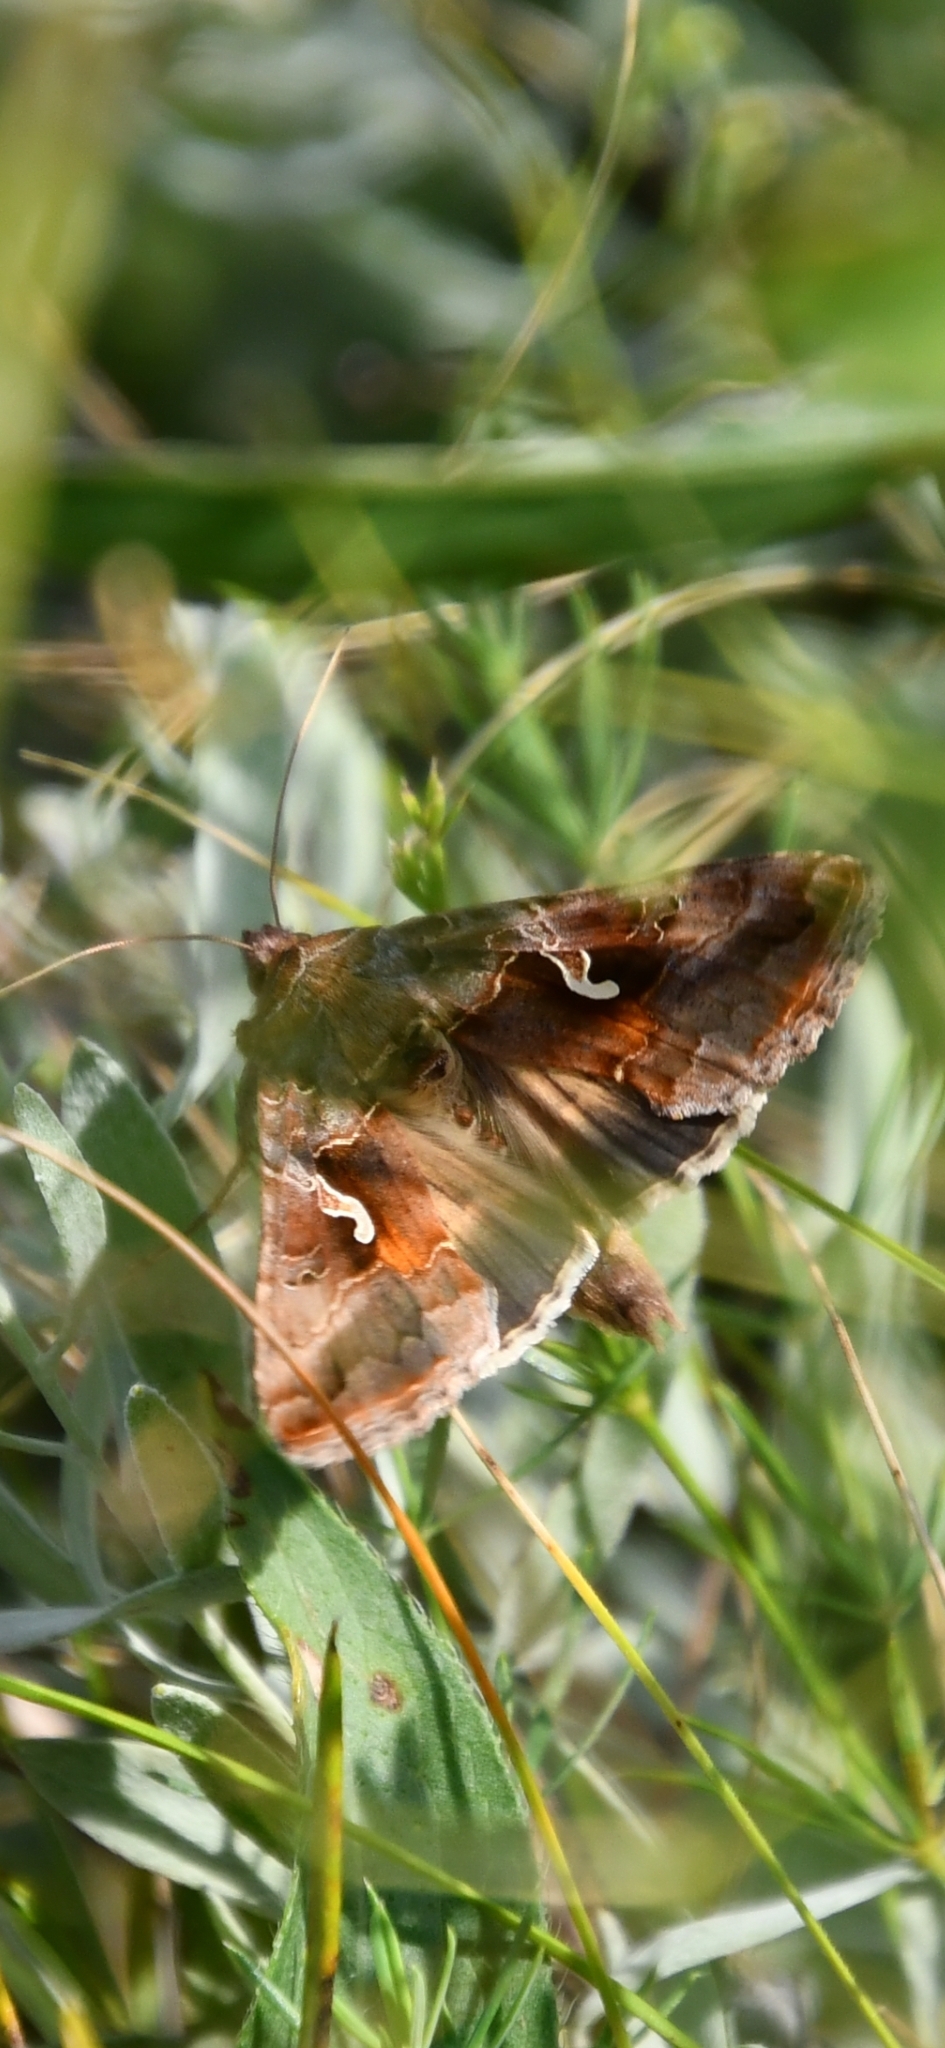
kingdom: Animalia
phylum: Arthropoda
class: Insecta
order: Lepidoptera
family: Noctuidae
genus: Autographa
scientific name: Autographa gamma
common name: Silver y
